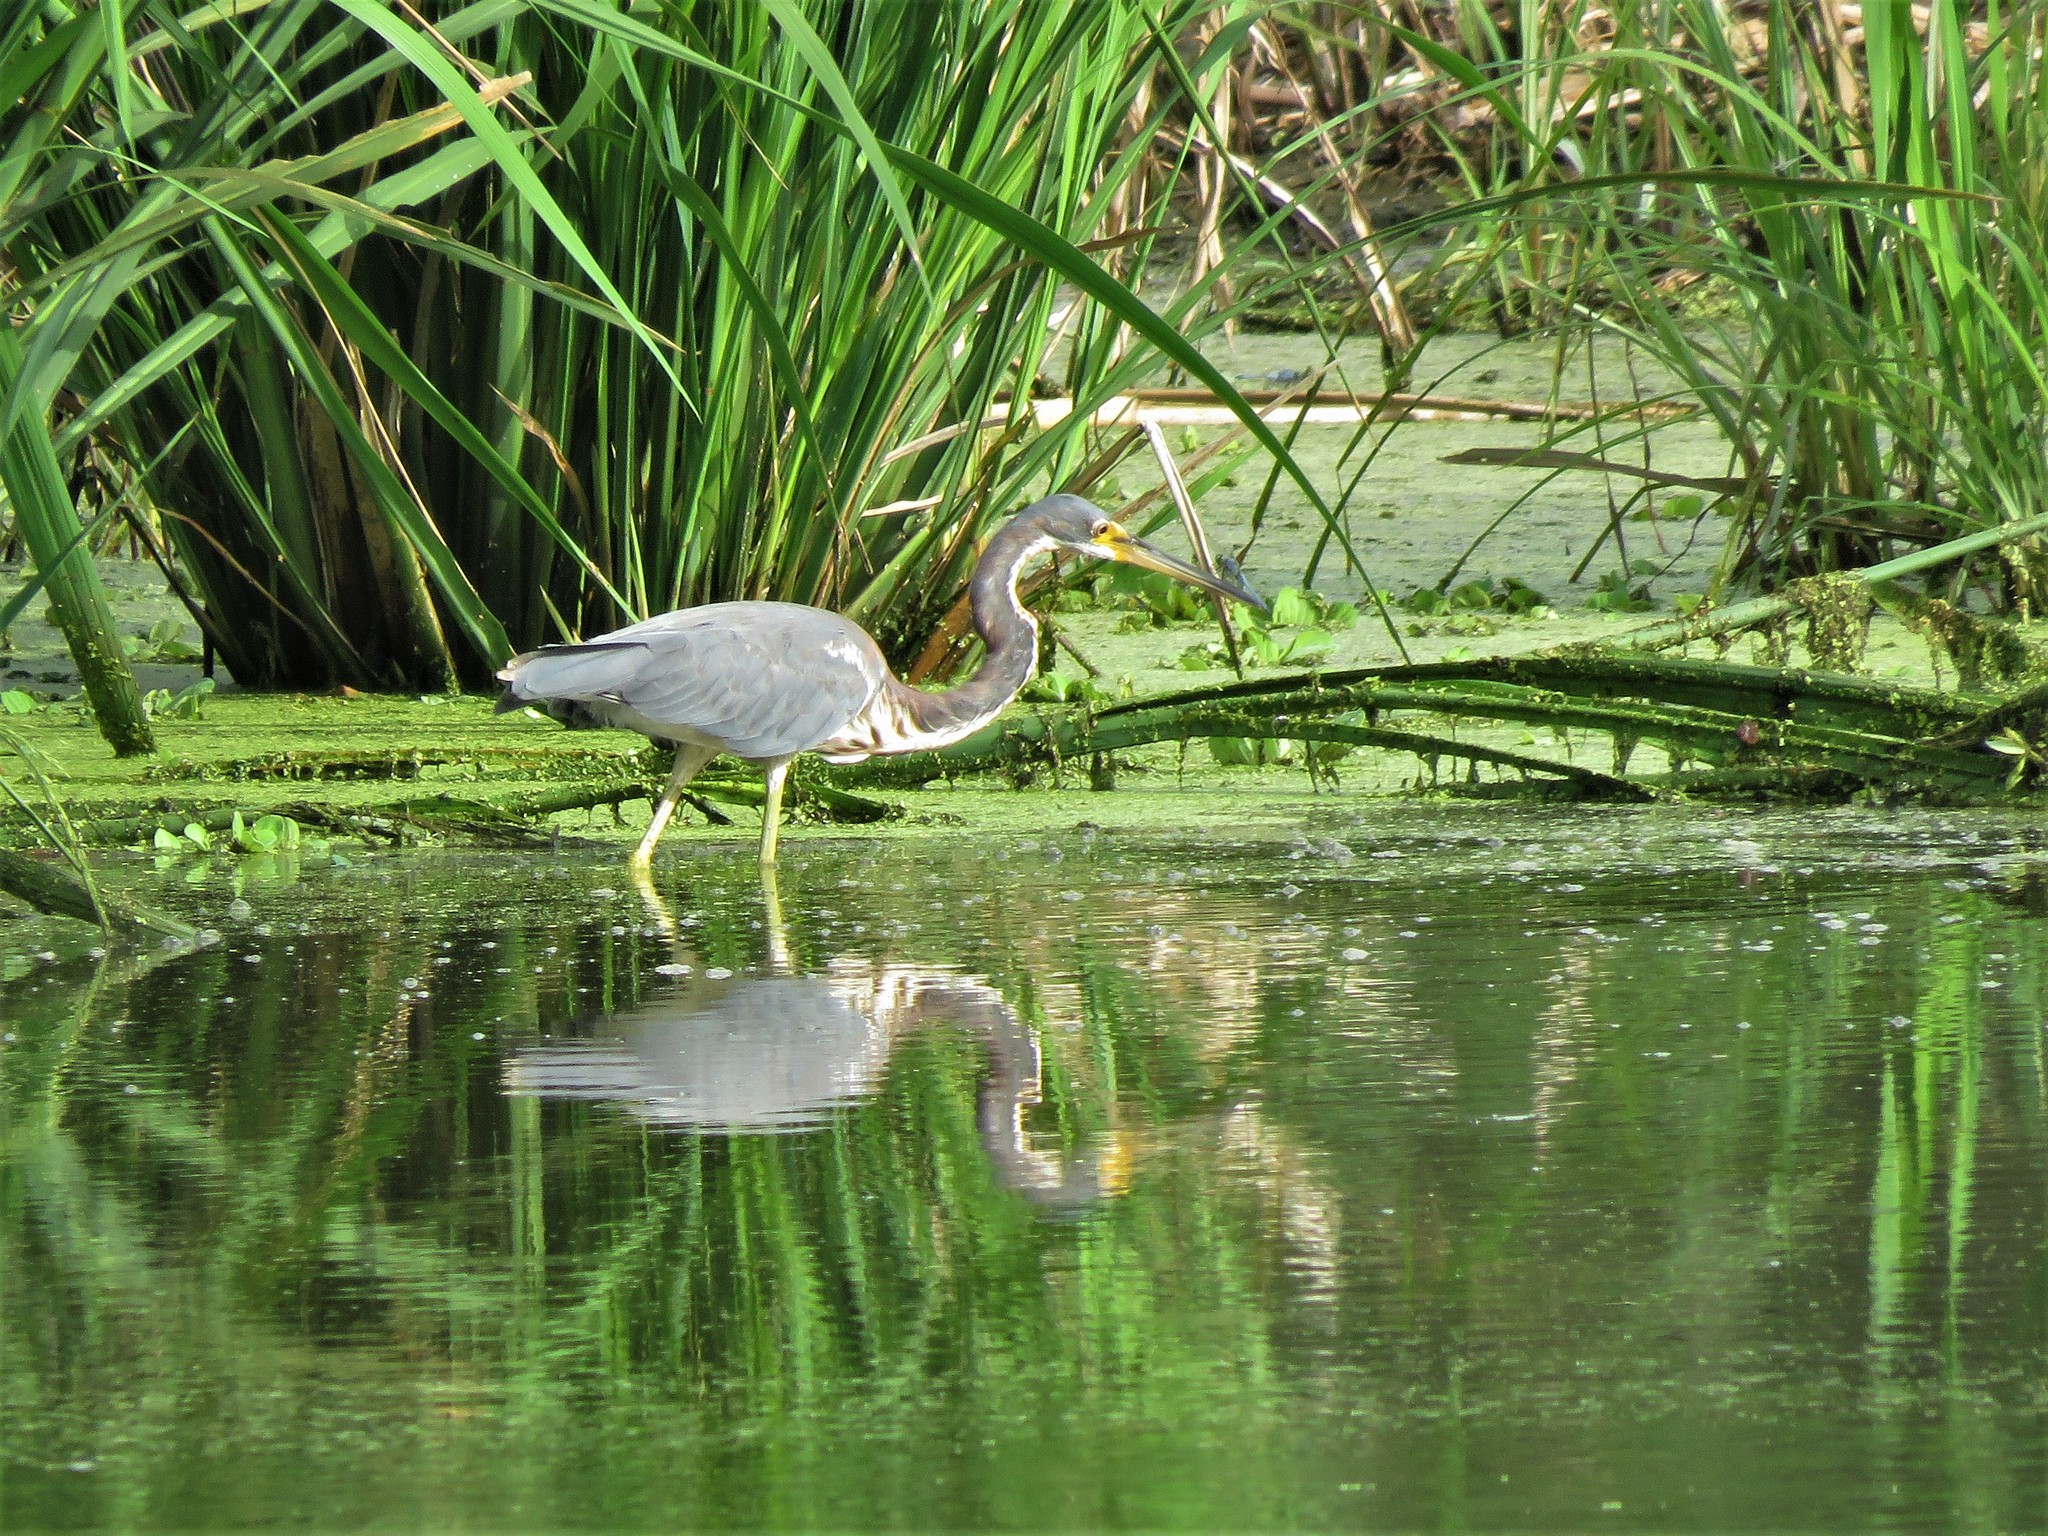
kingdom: Animalia
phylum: Chordata
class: Aves
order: Pelecaniformes
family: Ardeidae
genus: Egretta
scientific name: Egretta tricolor
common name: Tricolored heron
